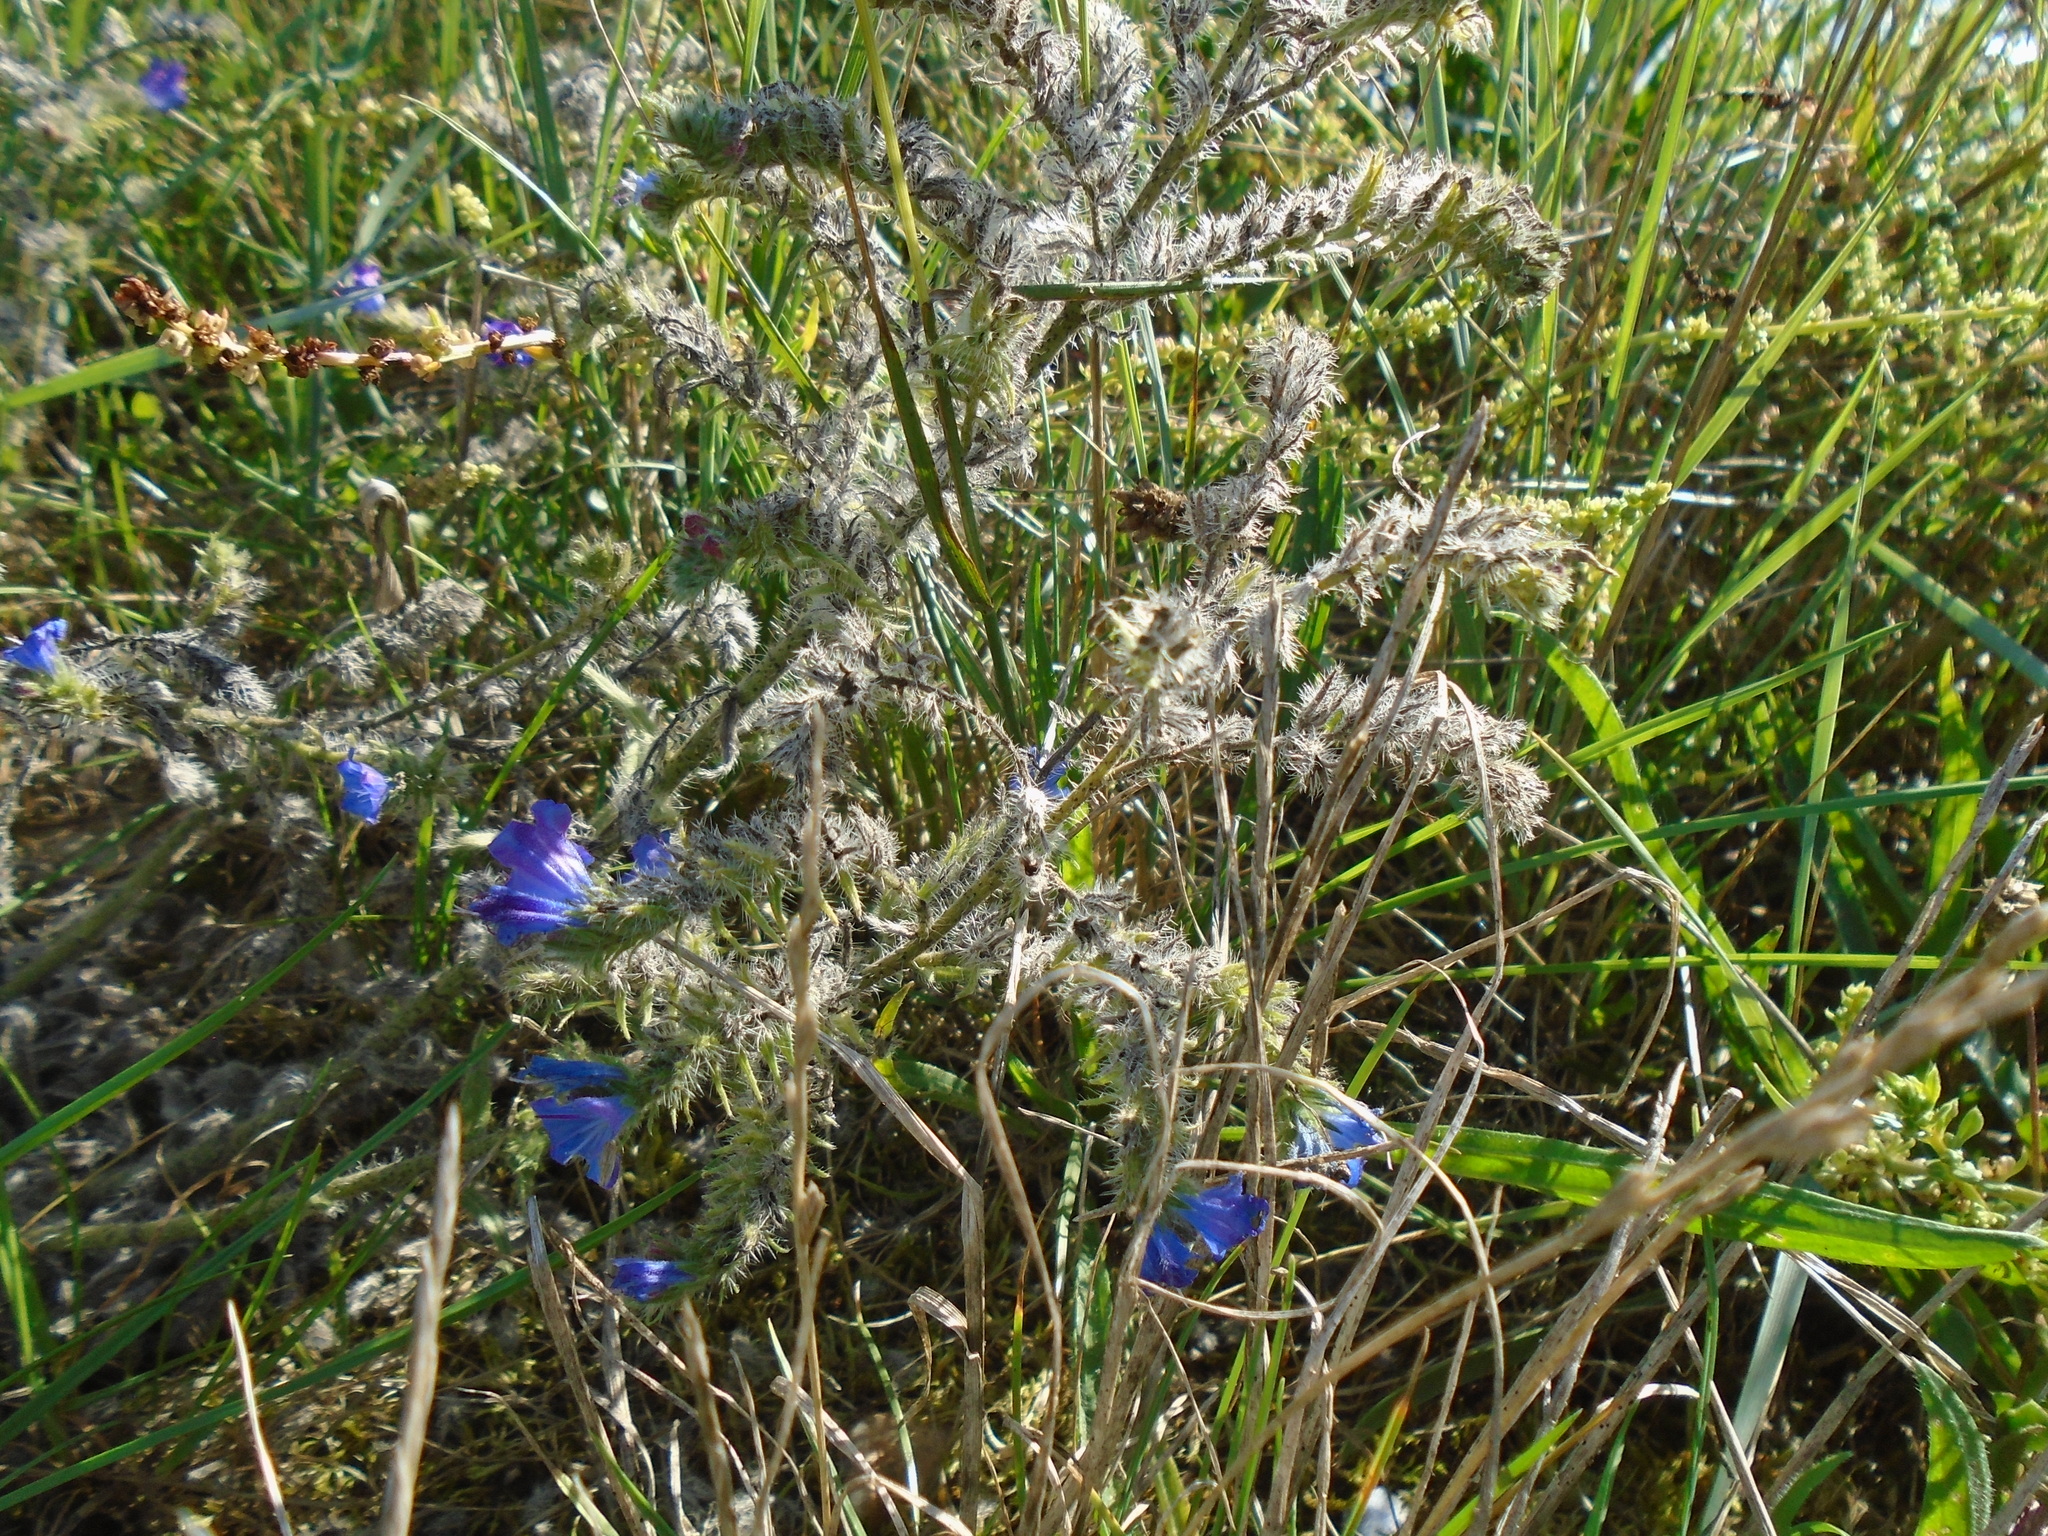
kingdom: Plantae
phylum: Tracheophyta
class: Magnoliopsida
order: Boraginales
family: Boraginaceae
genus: Echium
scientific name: Echium vulgare
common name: Common viper's bugloss
